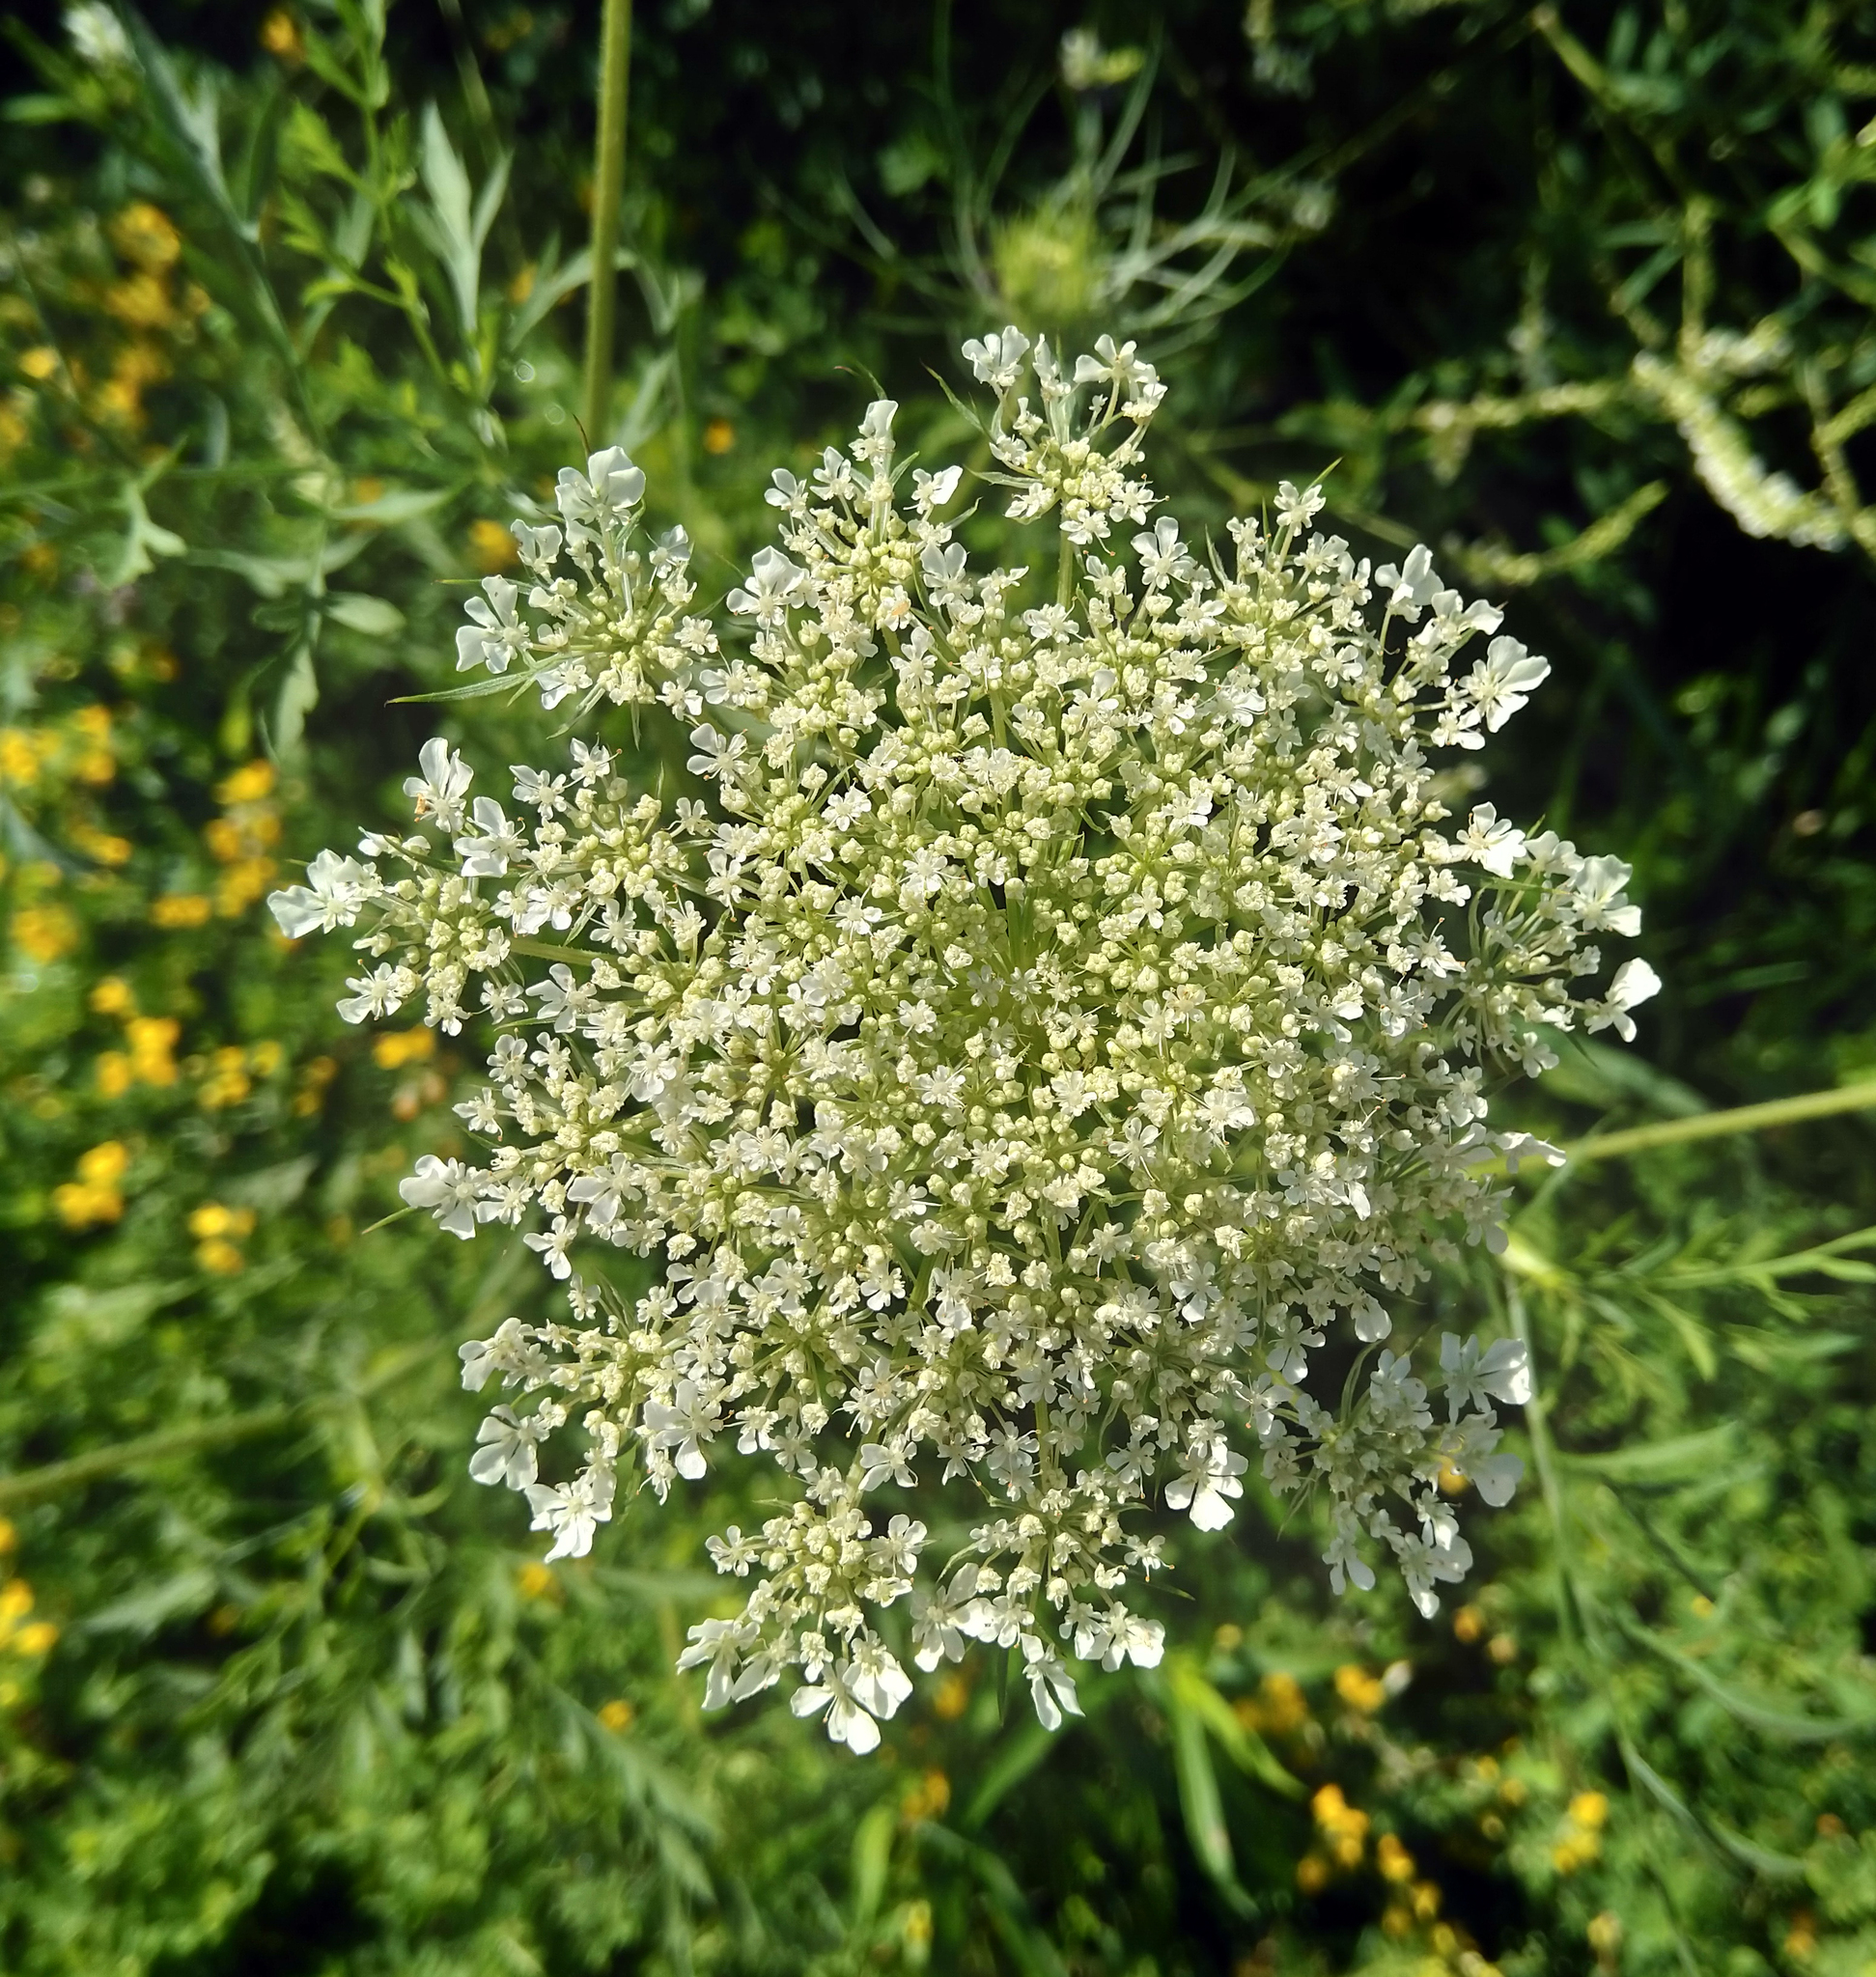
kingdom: Plantae
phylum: Tracheophyta
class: Magnoliopsida
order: Apiales
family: Apiaceae
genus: Daucus
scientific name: Daucus carota
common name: Wild carrot
